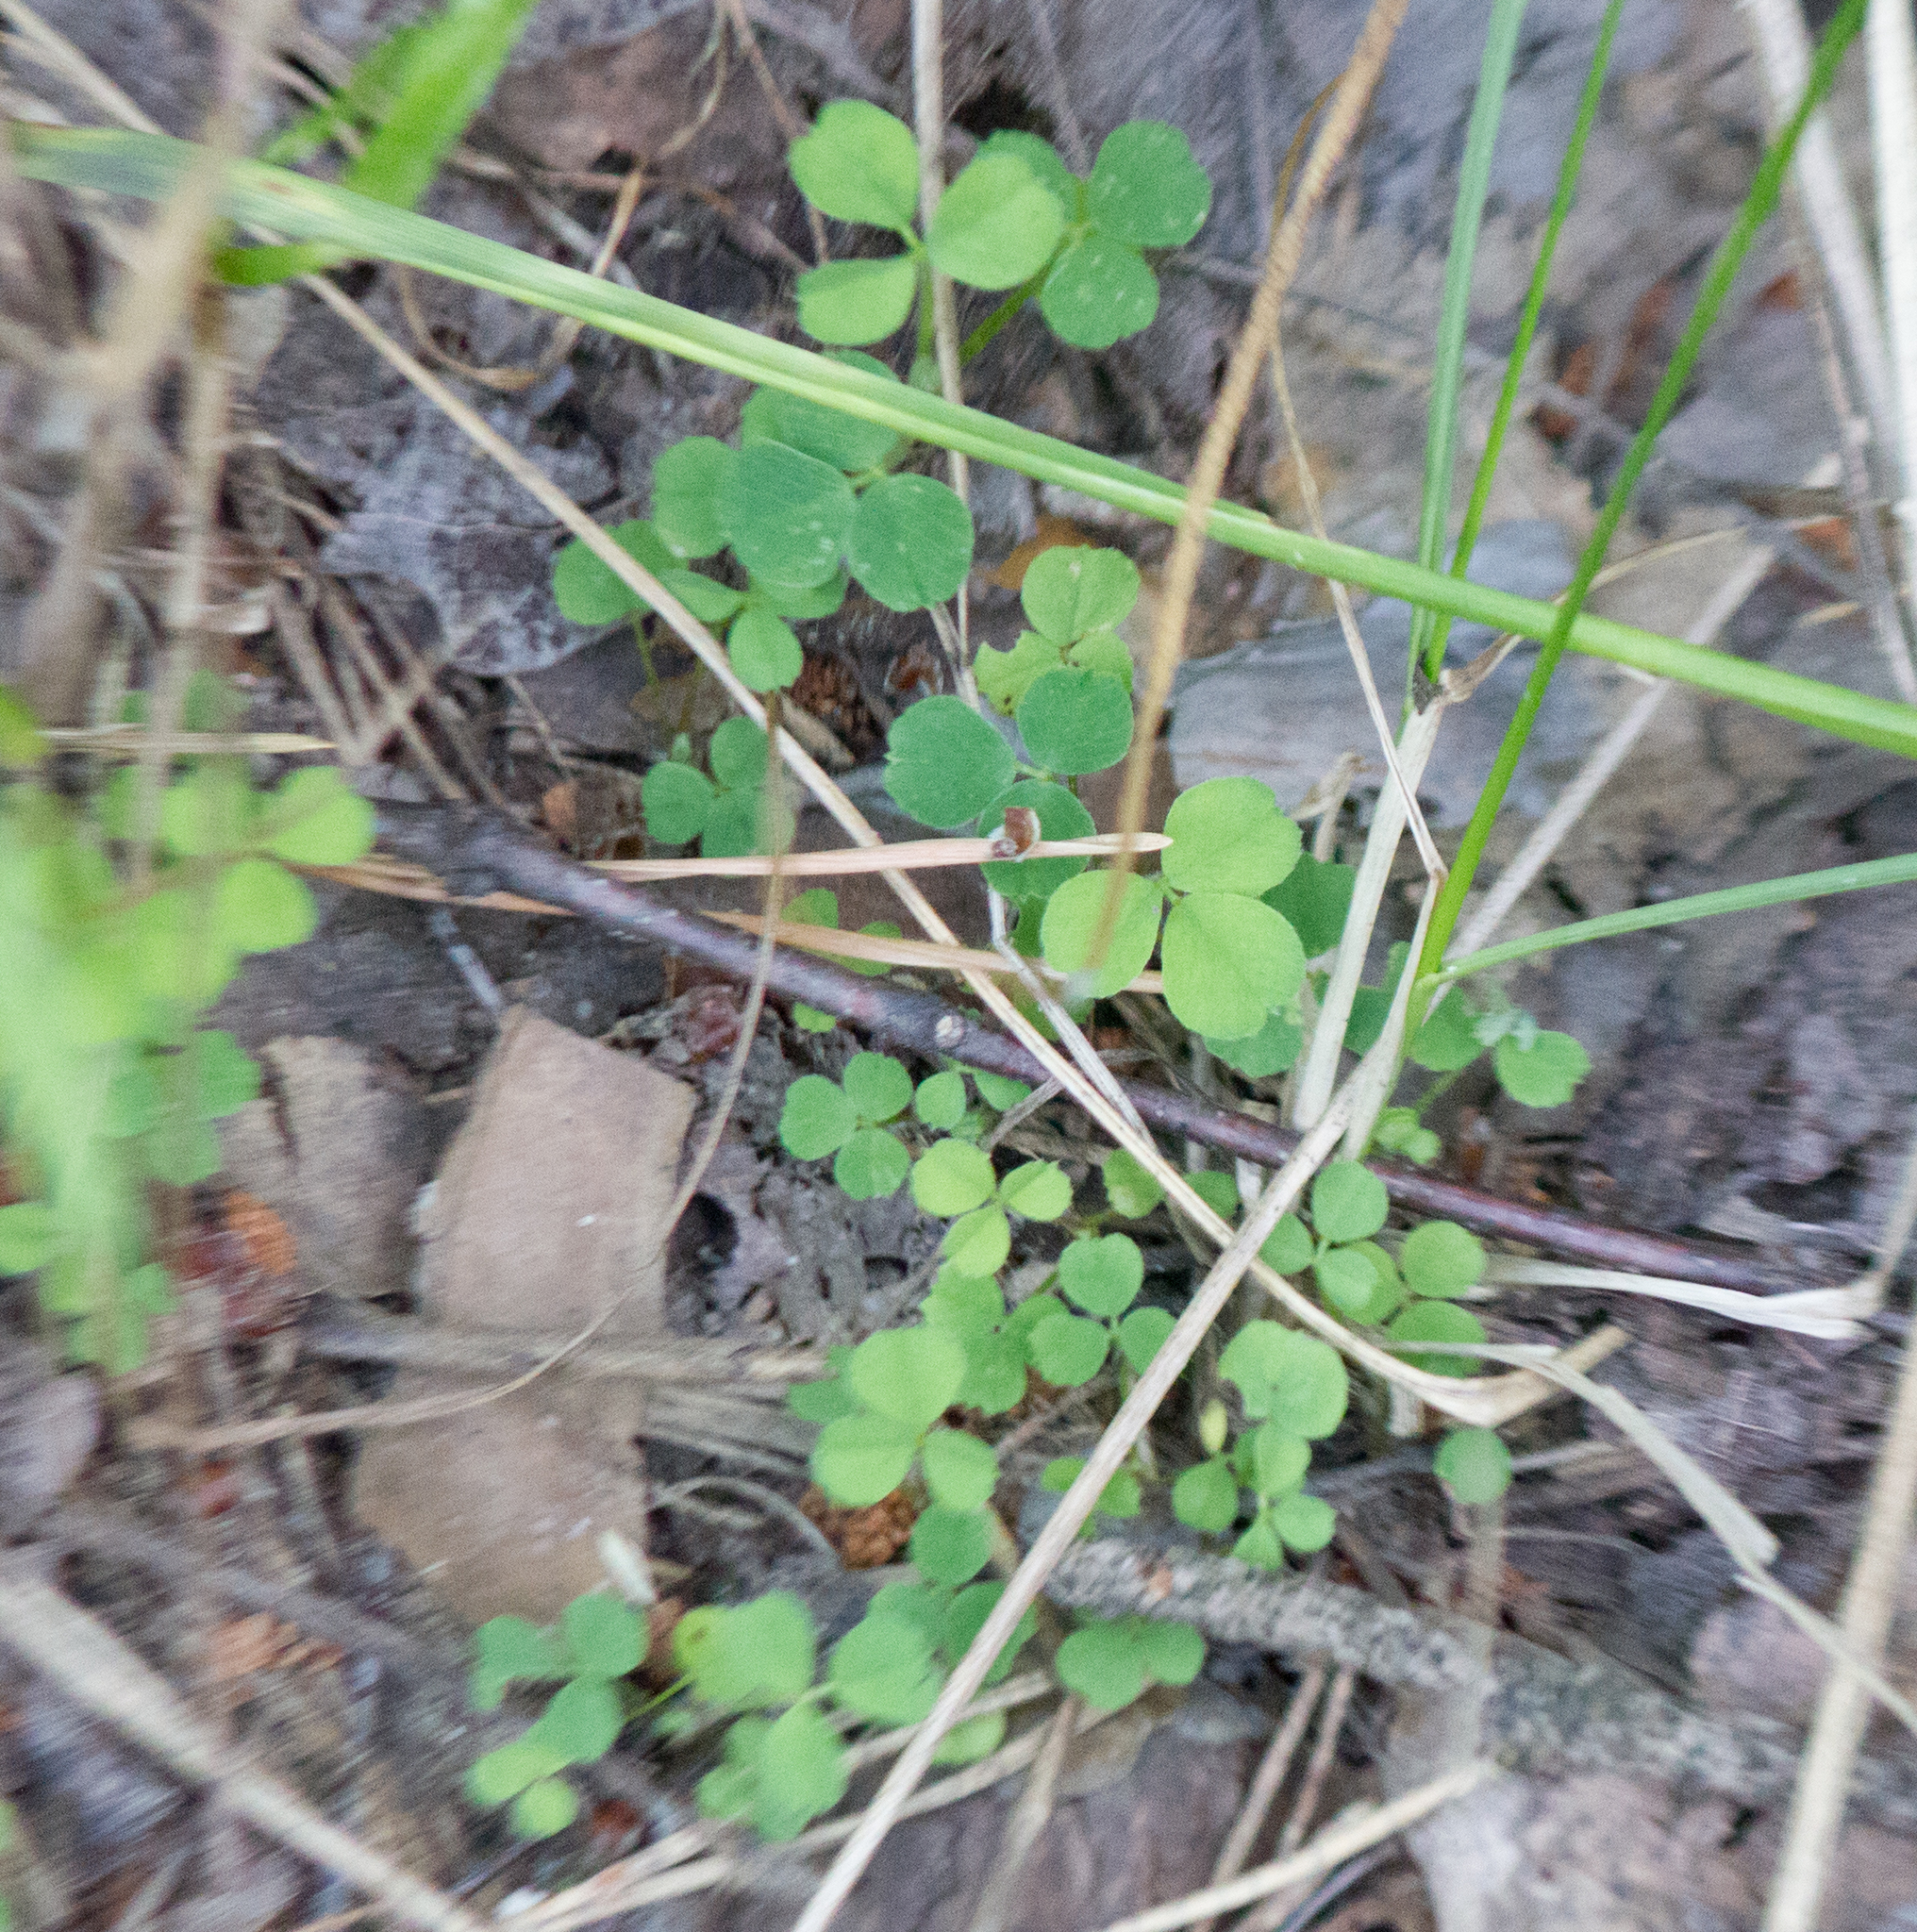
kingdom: Plantae
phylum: Tracheophyta
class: Magnoliopsida
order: Fabales
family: Fabaceae
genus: Medicago
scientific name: Medicago lupulina
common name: Black medick
